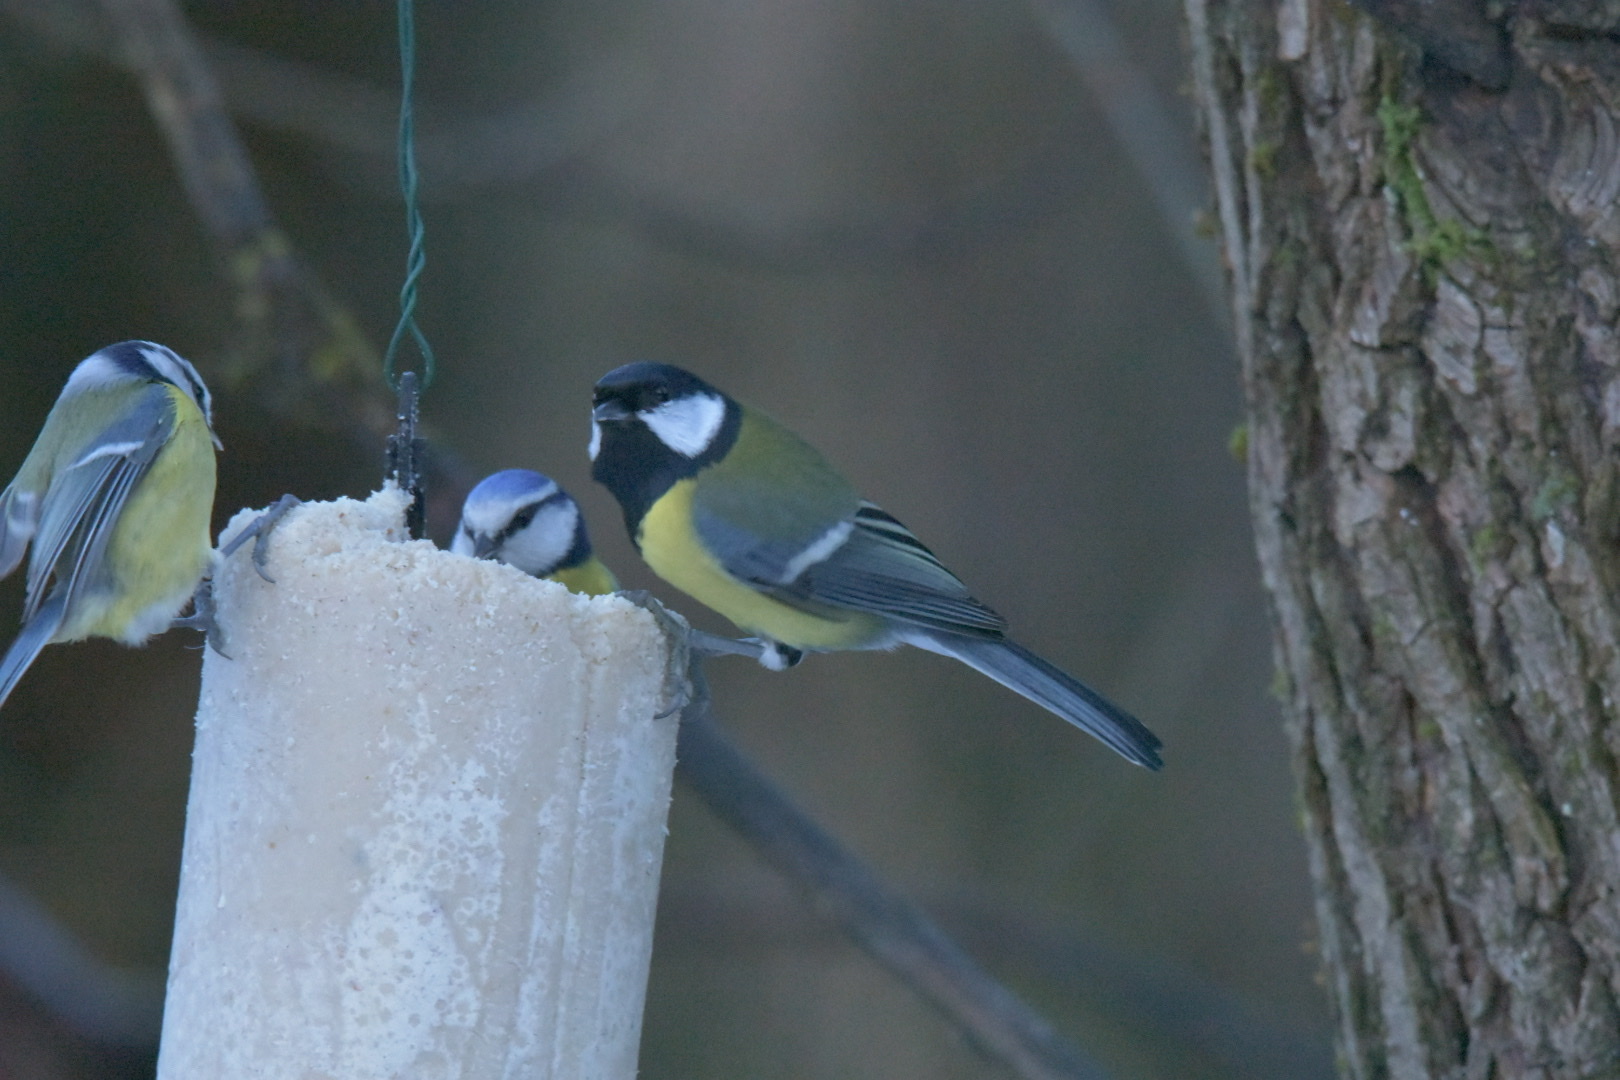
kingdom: Animalia
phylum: Chordata
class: Aves
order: Passeriformes
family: Paridae
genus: Parus
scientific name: Parus major
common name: Great tit
